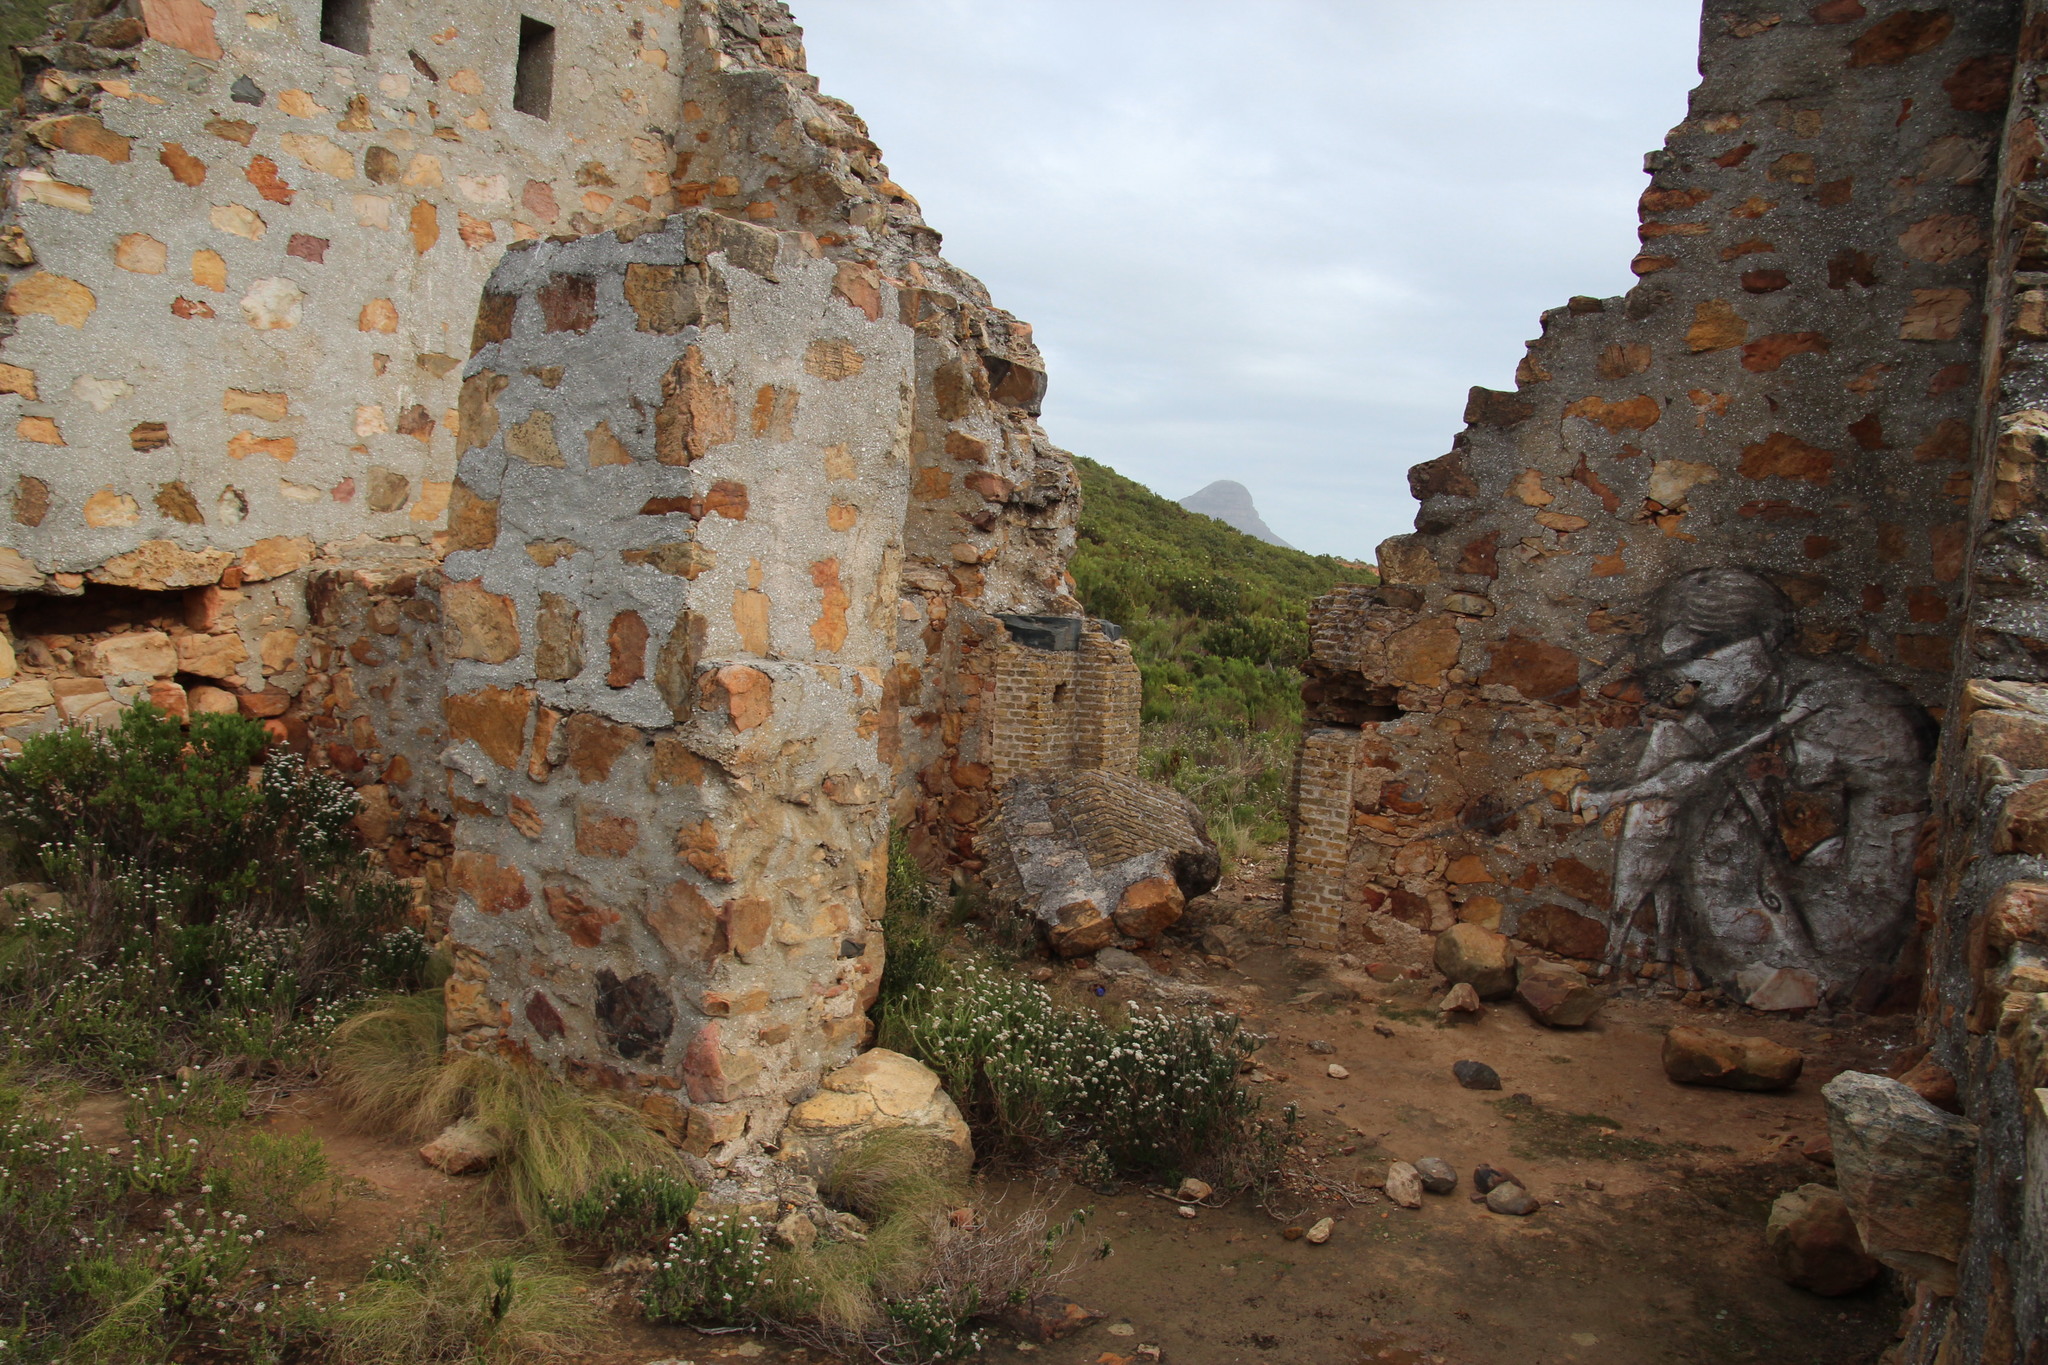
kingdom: Plantae
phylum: Tracheophyta
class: Magnoliopsida
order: Asterales
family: Asteraceae
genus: Metalasia
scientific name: Metalasia densa
